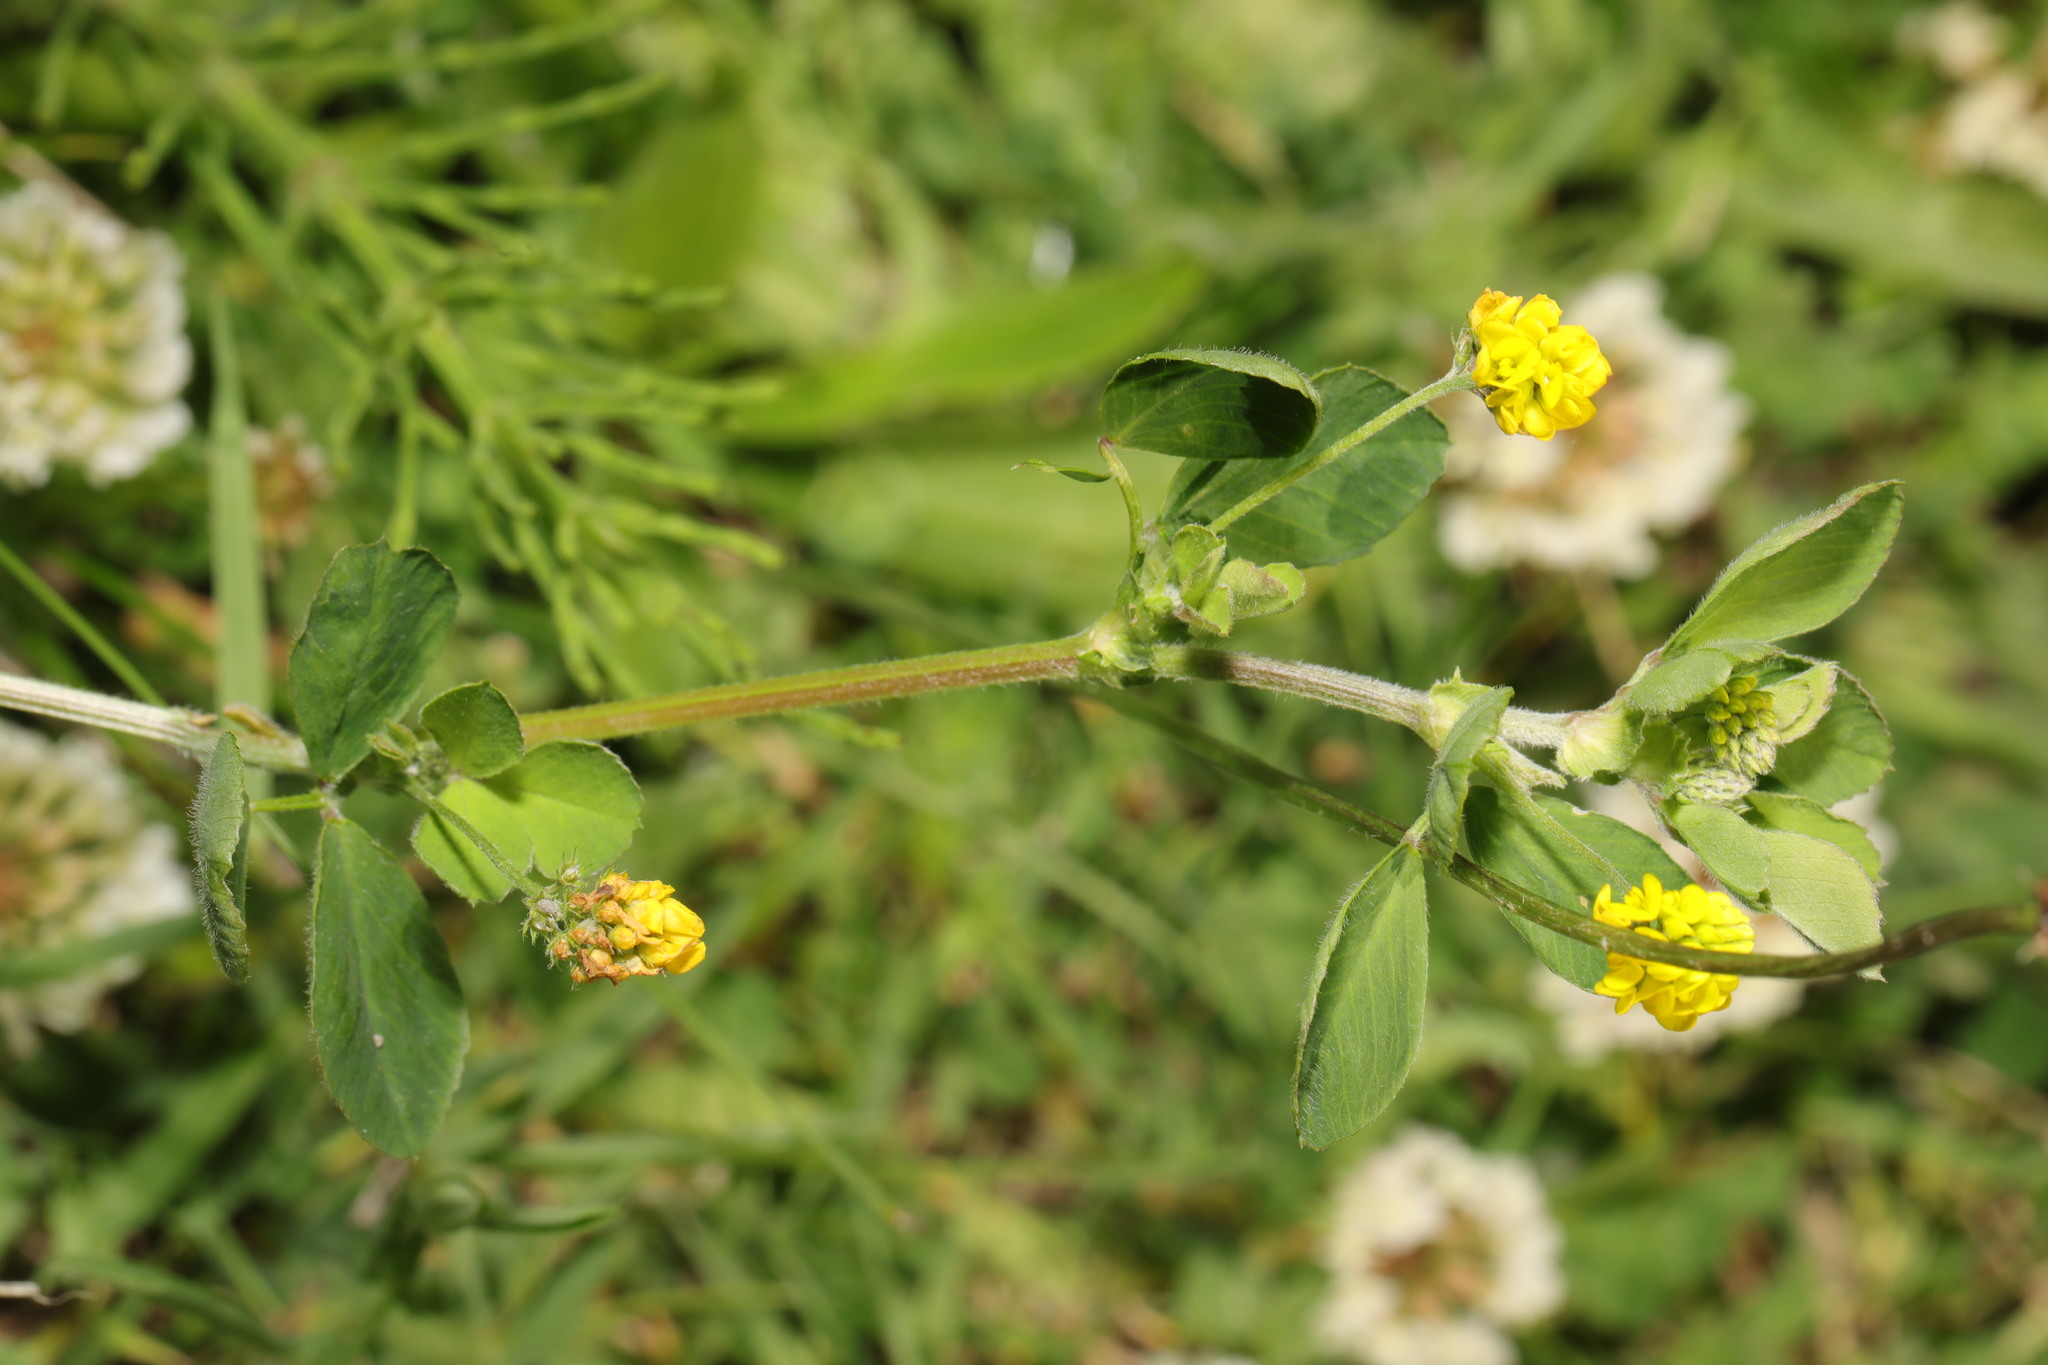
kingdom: Plantae
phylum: Tracheophyta
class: Magnoliopsida
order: Fabales
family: Fabaceae
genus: Medicago
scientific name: Medicago lupulina
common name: Black medick
